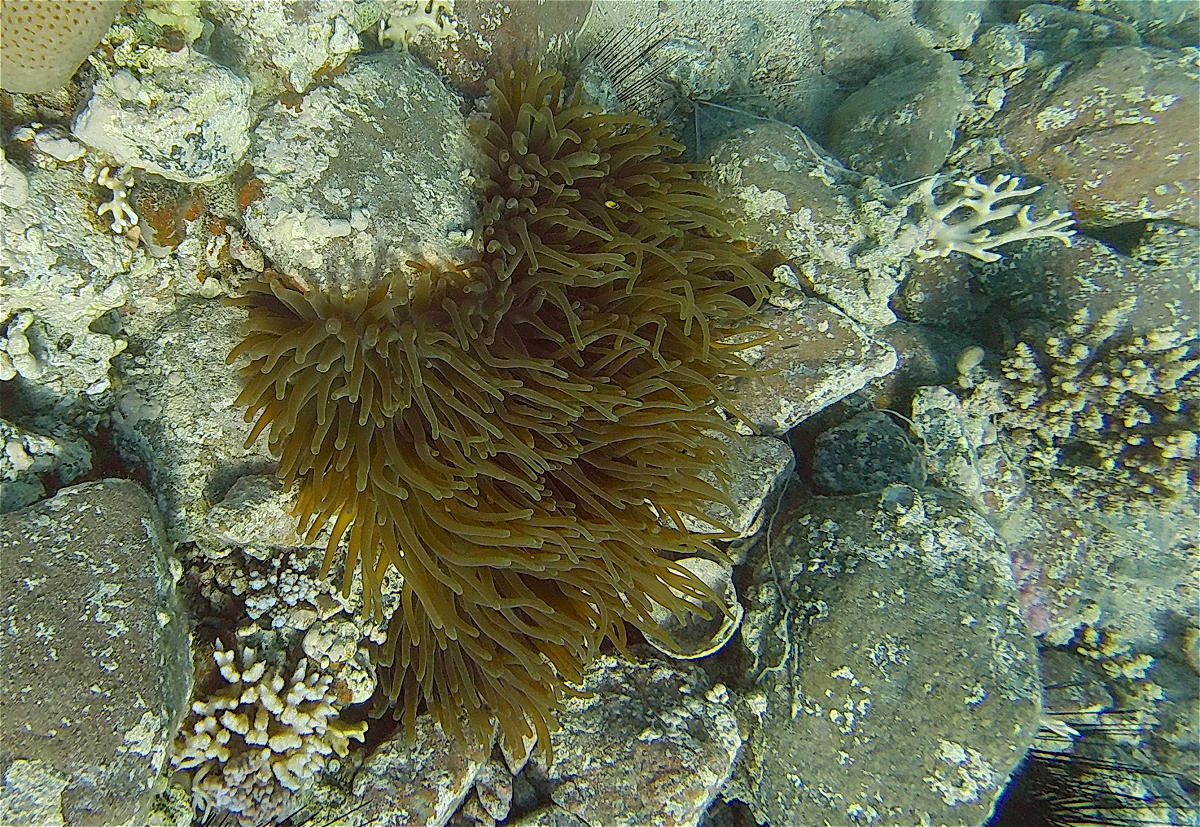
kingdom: Animalia
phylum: Cnidaria
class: Anthozoa
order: Actiniaria
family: Actiniidae
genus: Entacmaea
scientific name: Entacmaea quadricolor
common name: Bulb tentacle sea anemone
